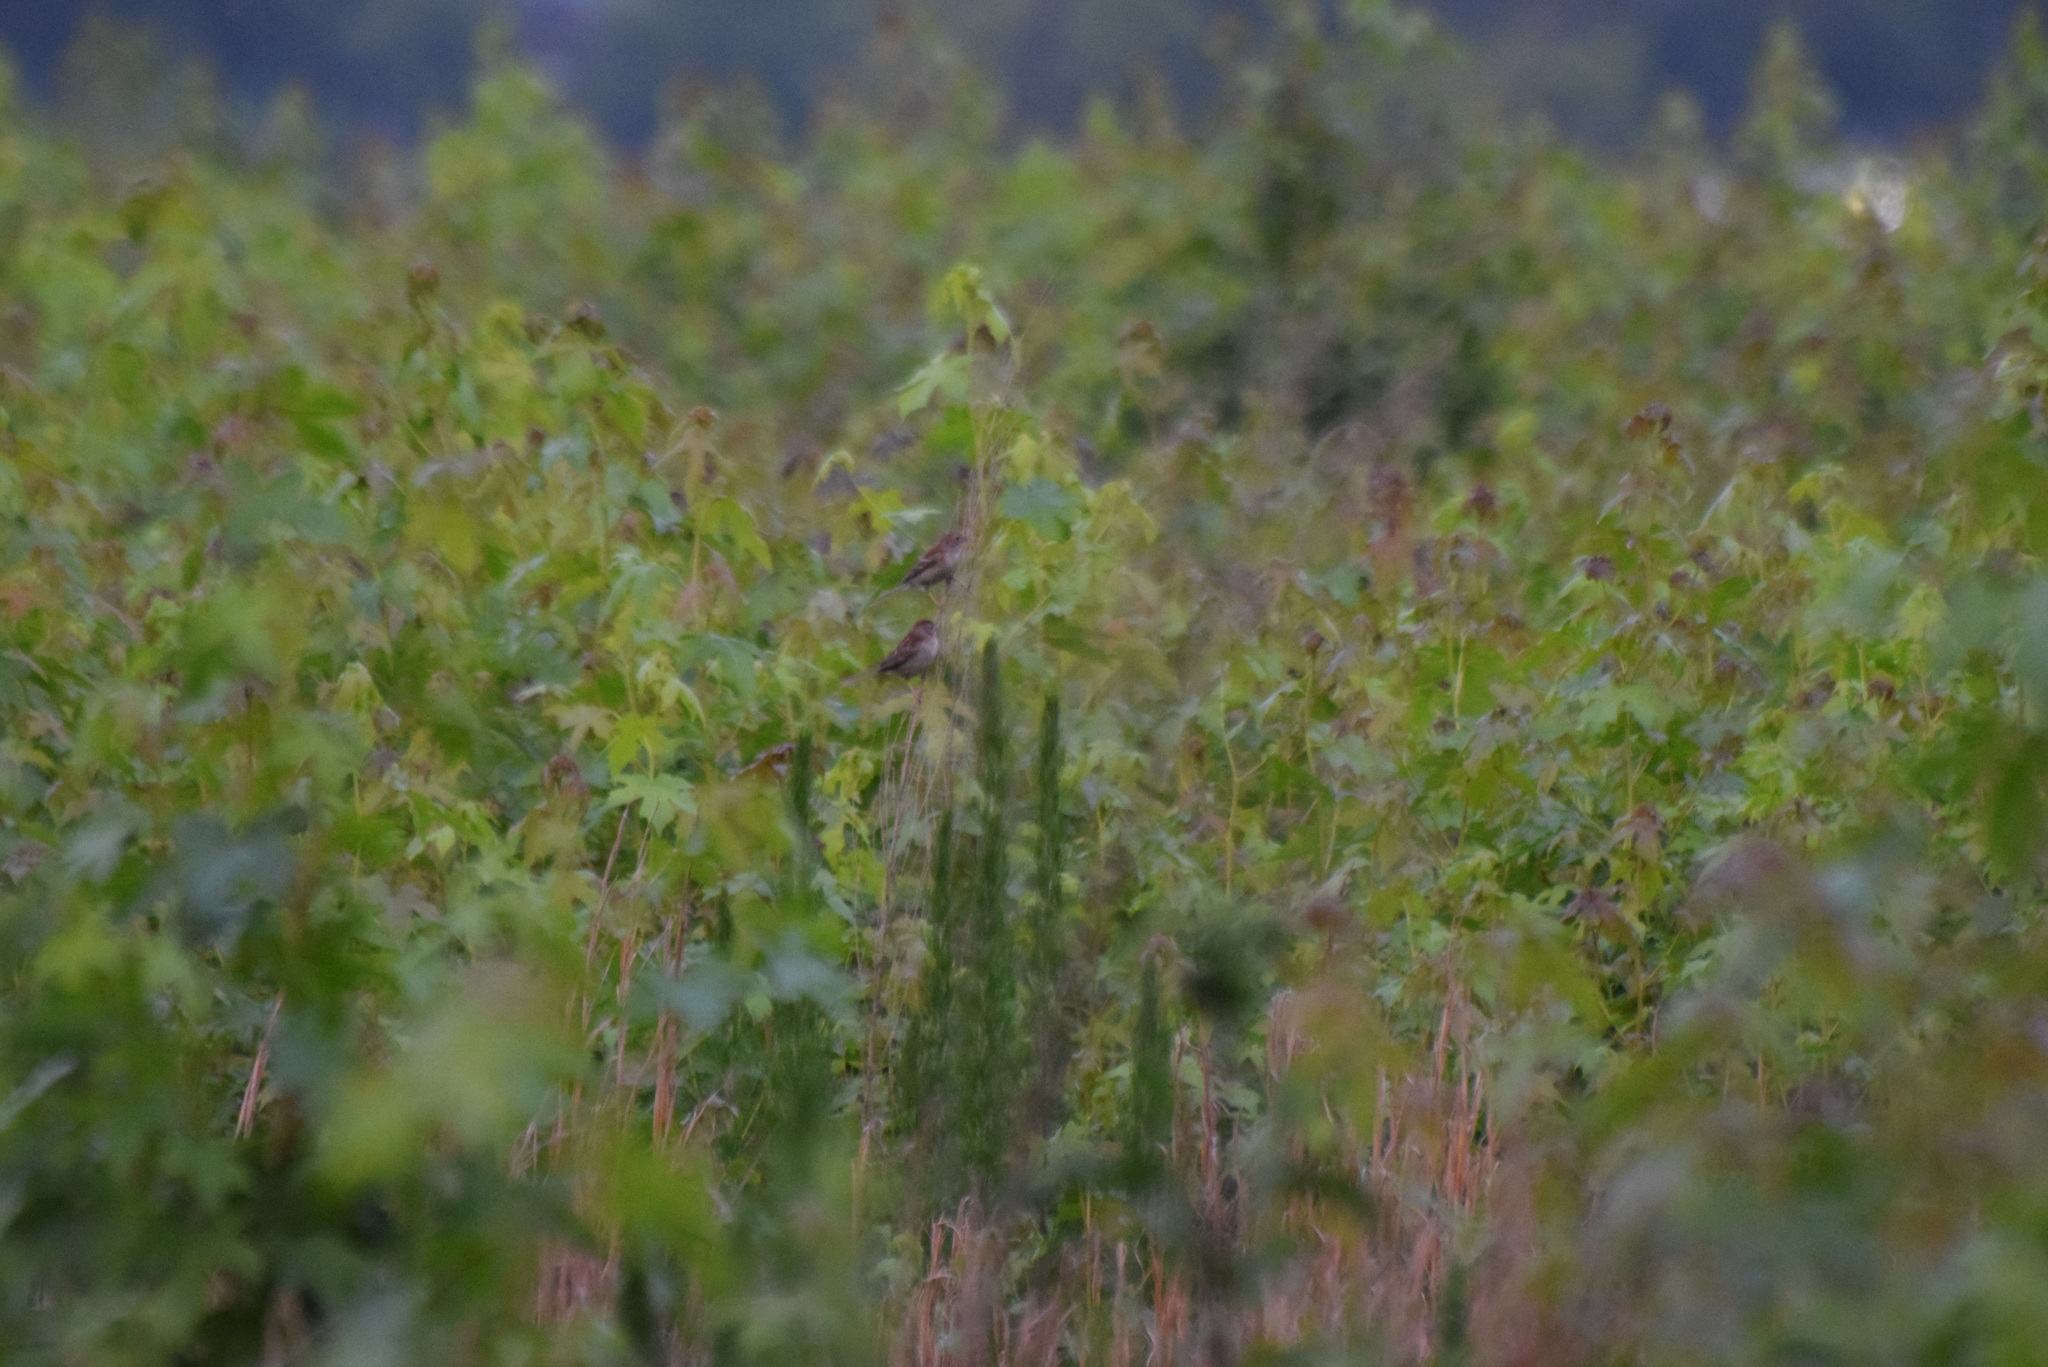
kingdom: Animalia
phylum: Chordata
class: Aves
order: Passeriformes
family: Passerellidae
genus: Spizella
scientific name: Spizella pusilla
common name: Field sparrow
